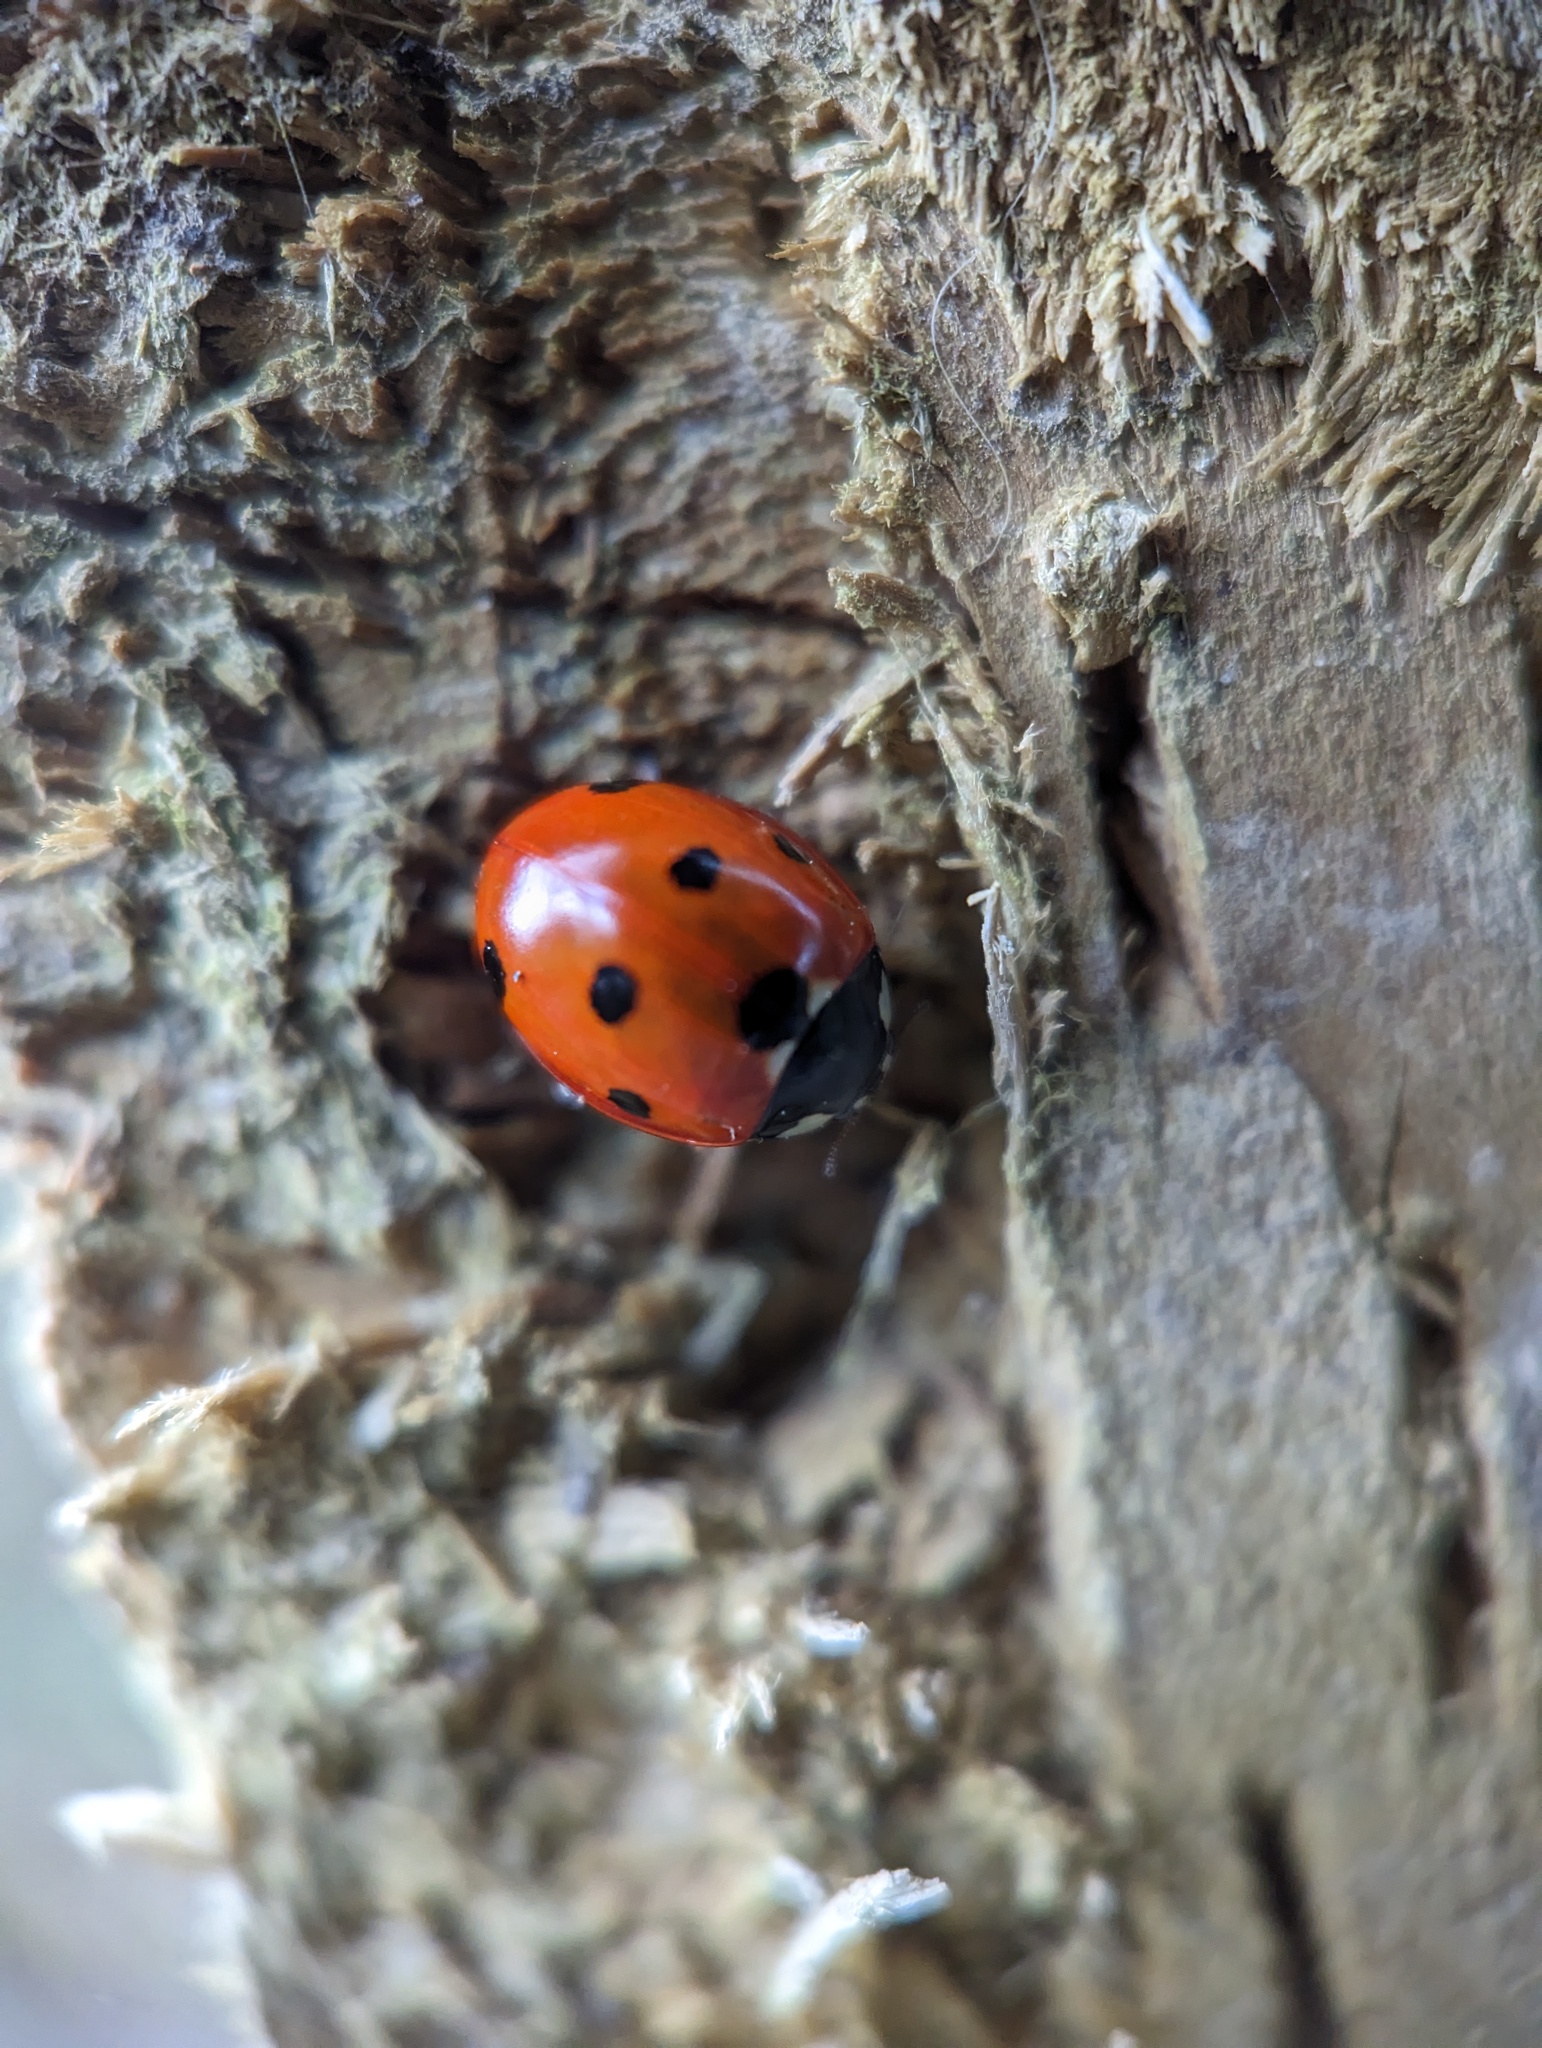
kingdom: Animalia
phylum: Arthropoda
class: Insecta
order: Coleoptera
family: Coccinellidae
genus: Coccinella
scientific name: Coccinella septempunctata
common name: Sevenspotted lady beetle
